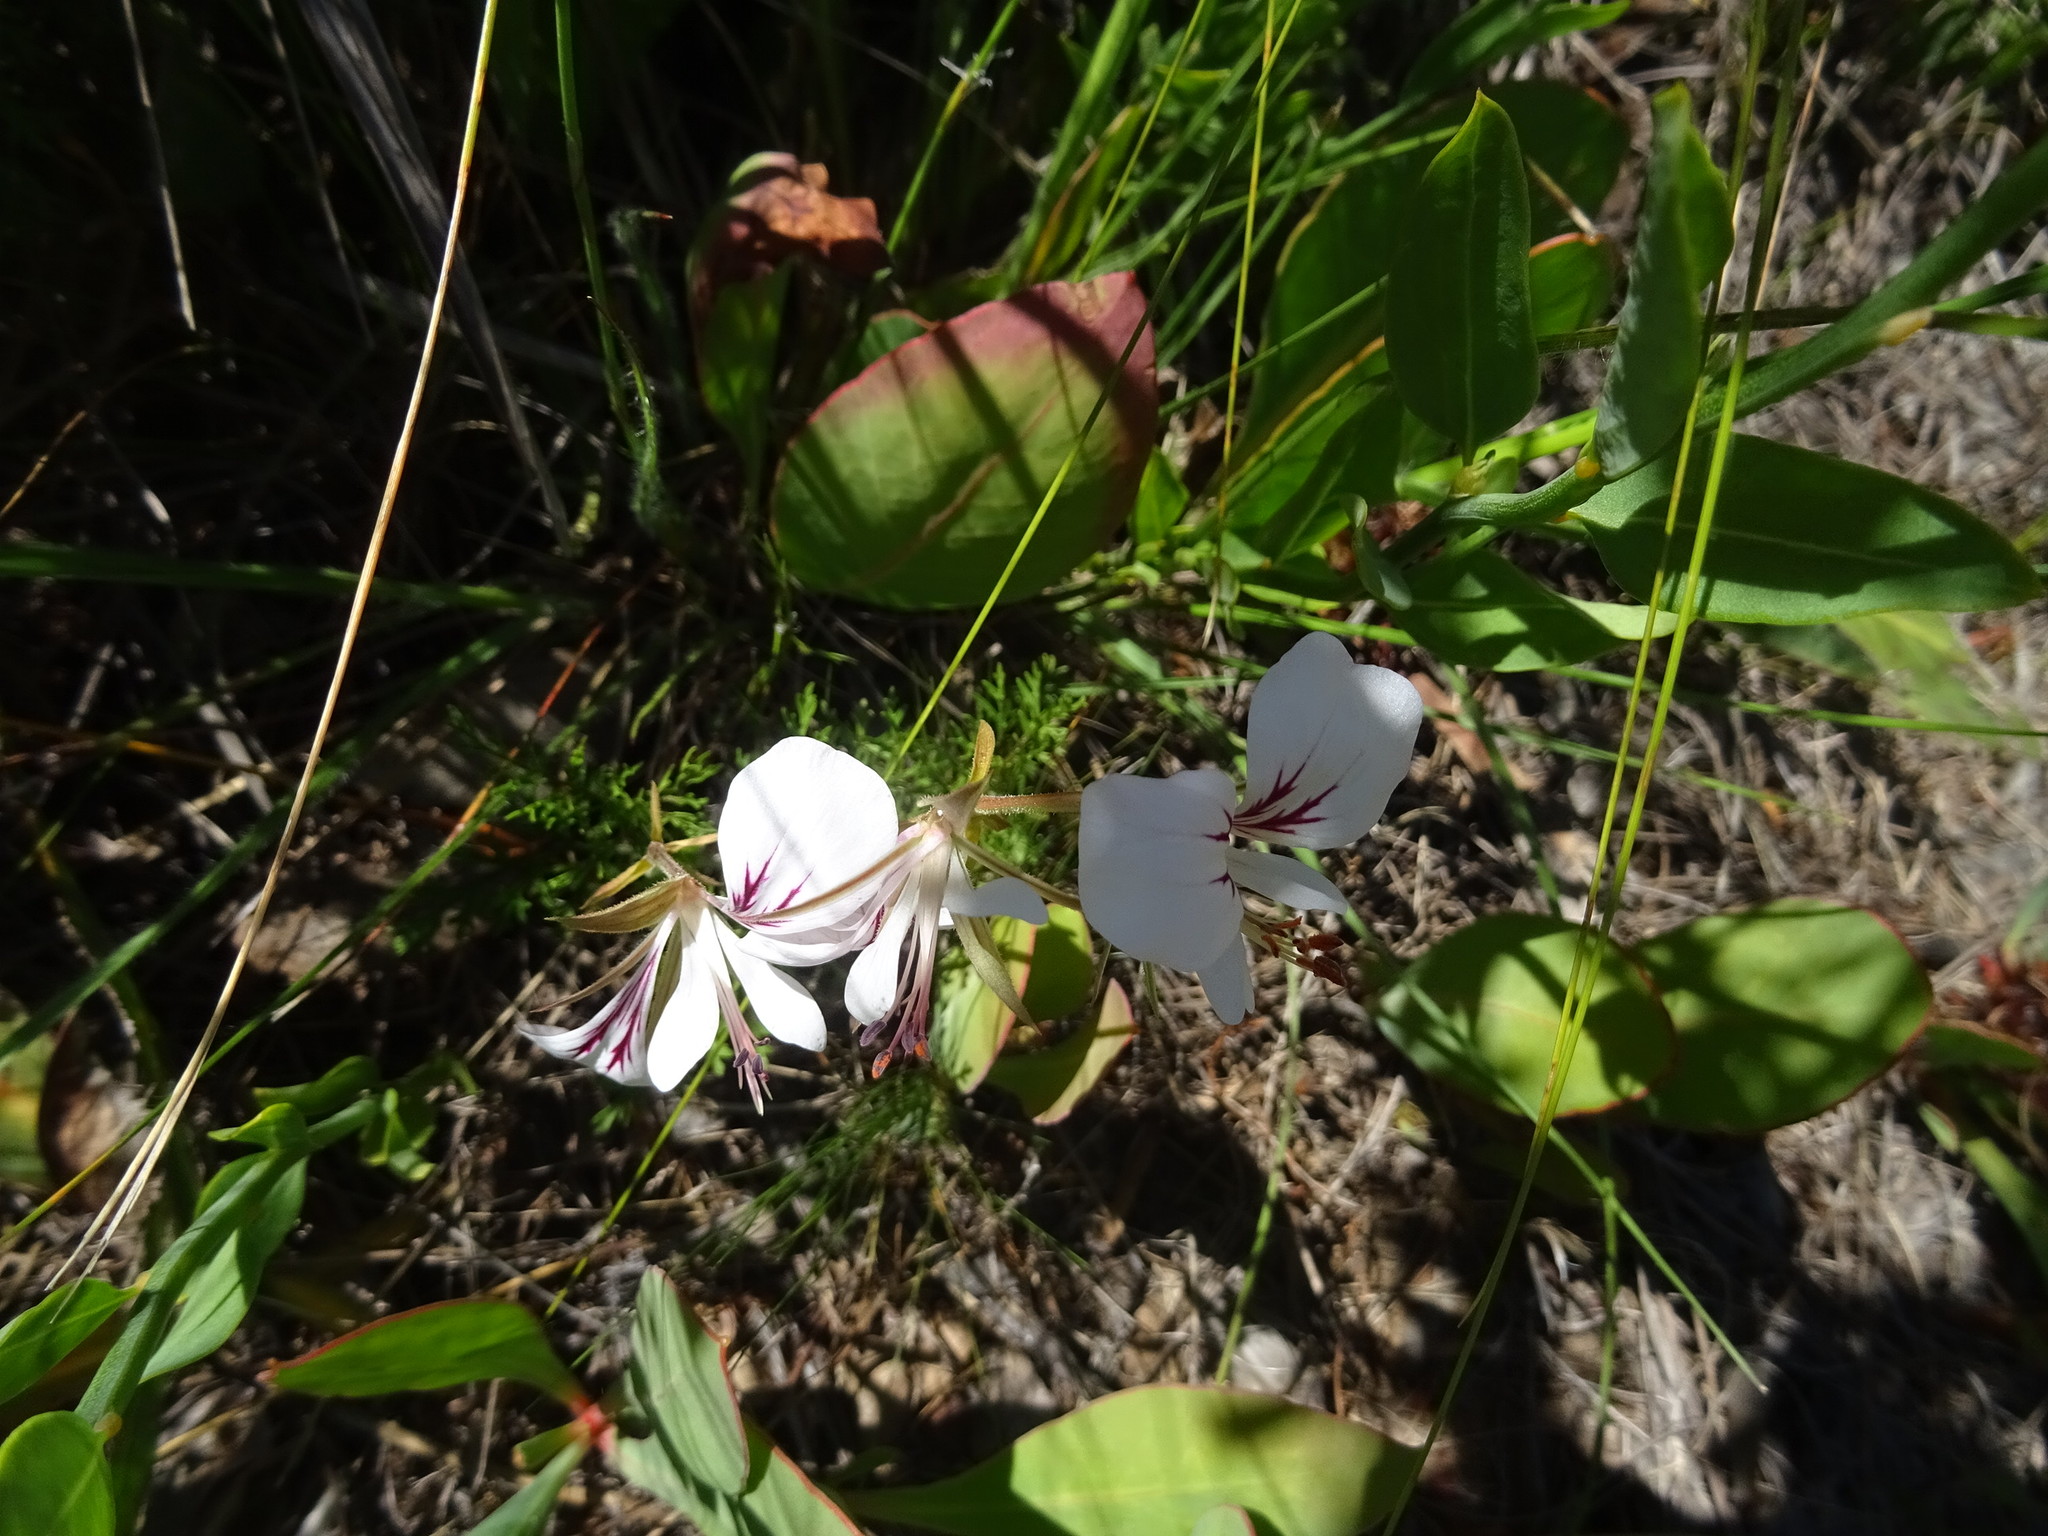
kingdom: Plantae
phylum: Tracheophyta
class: Magnoliopsida
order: Geraniales
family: Geraniaceae
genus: Pelargonium
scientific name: Pelargonium myrrhifolium
